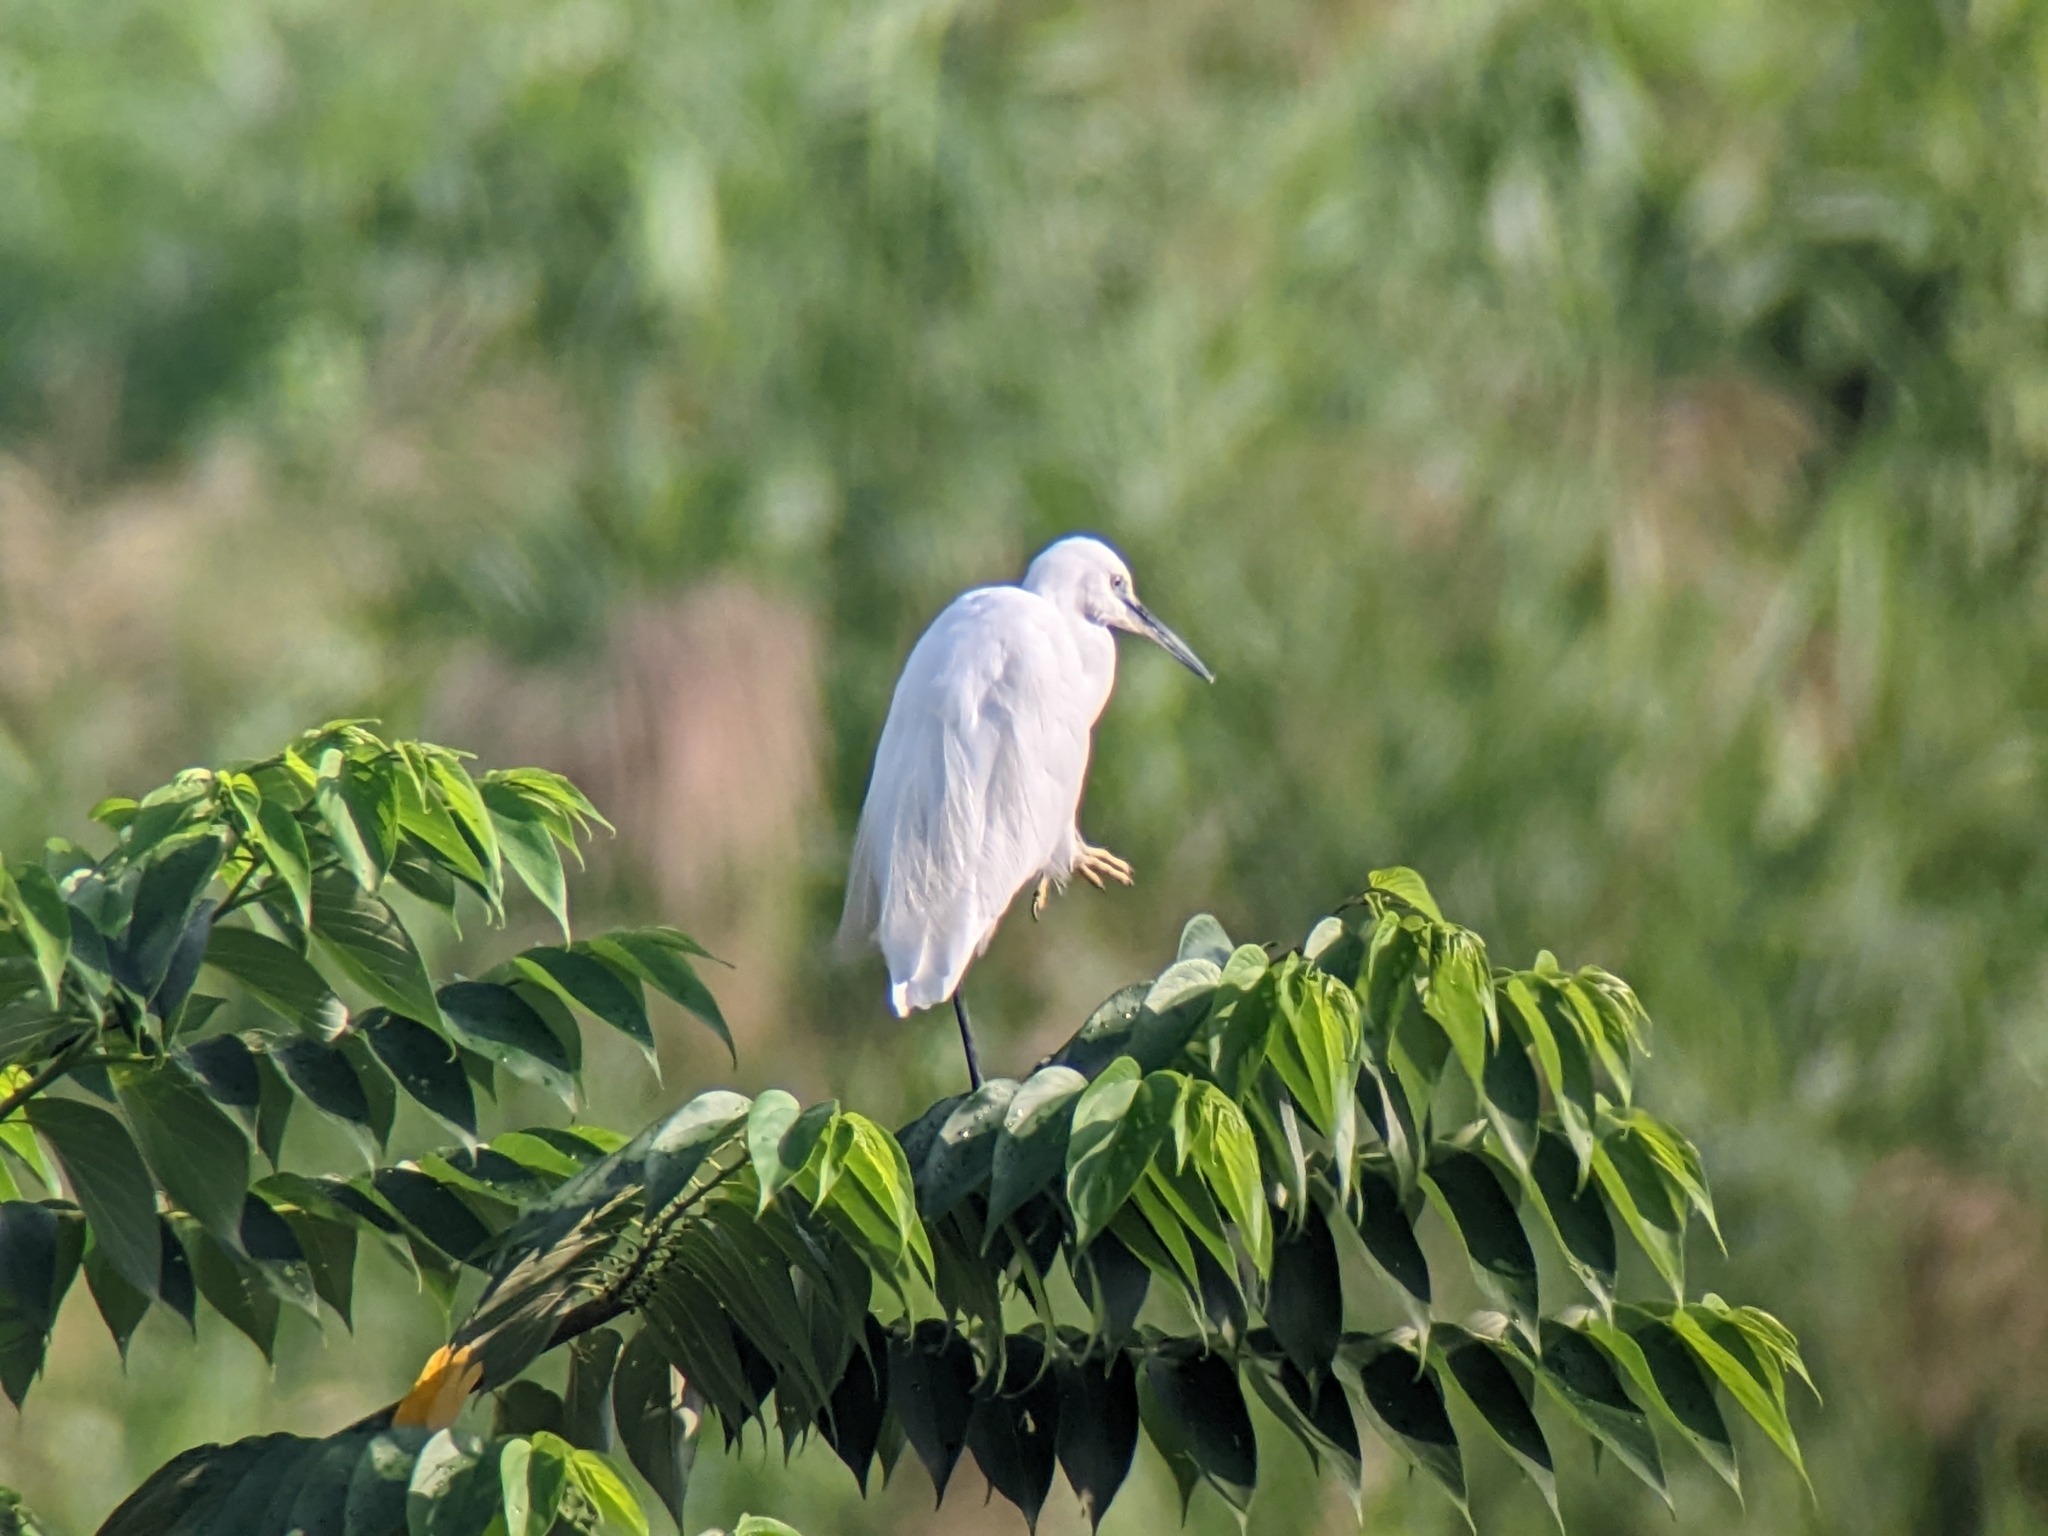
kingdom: Animalia
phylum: Chordata
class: Aves
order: Pelecaniformes
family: Ardeidae
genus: Egretta
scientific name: Egretta garzetta
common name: Little egret
